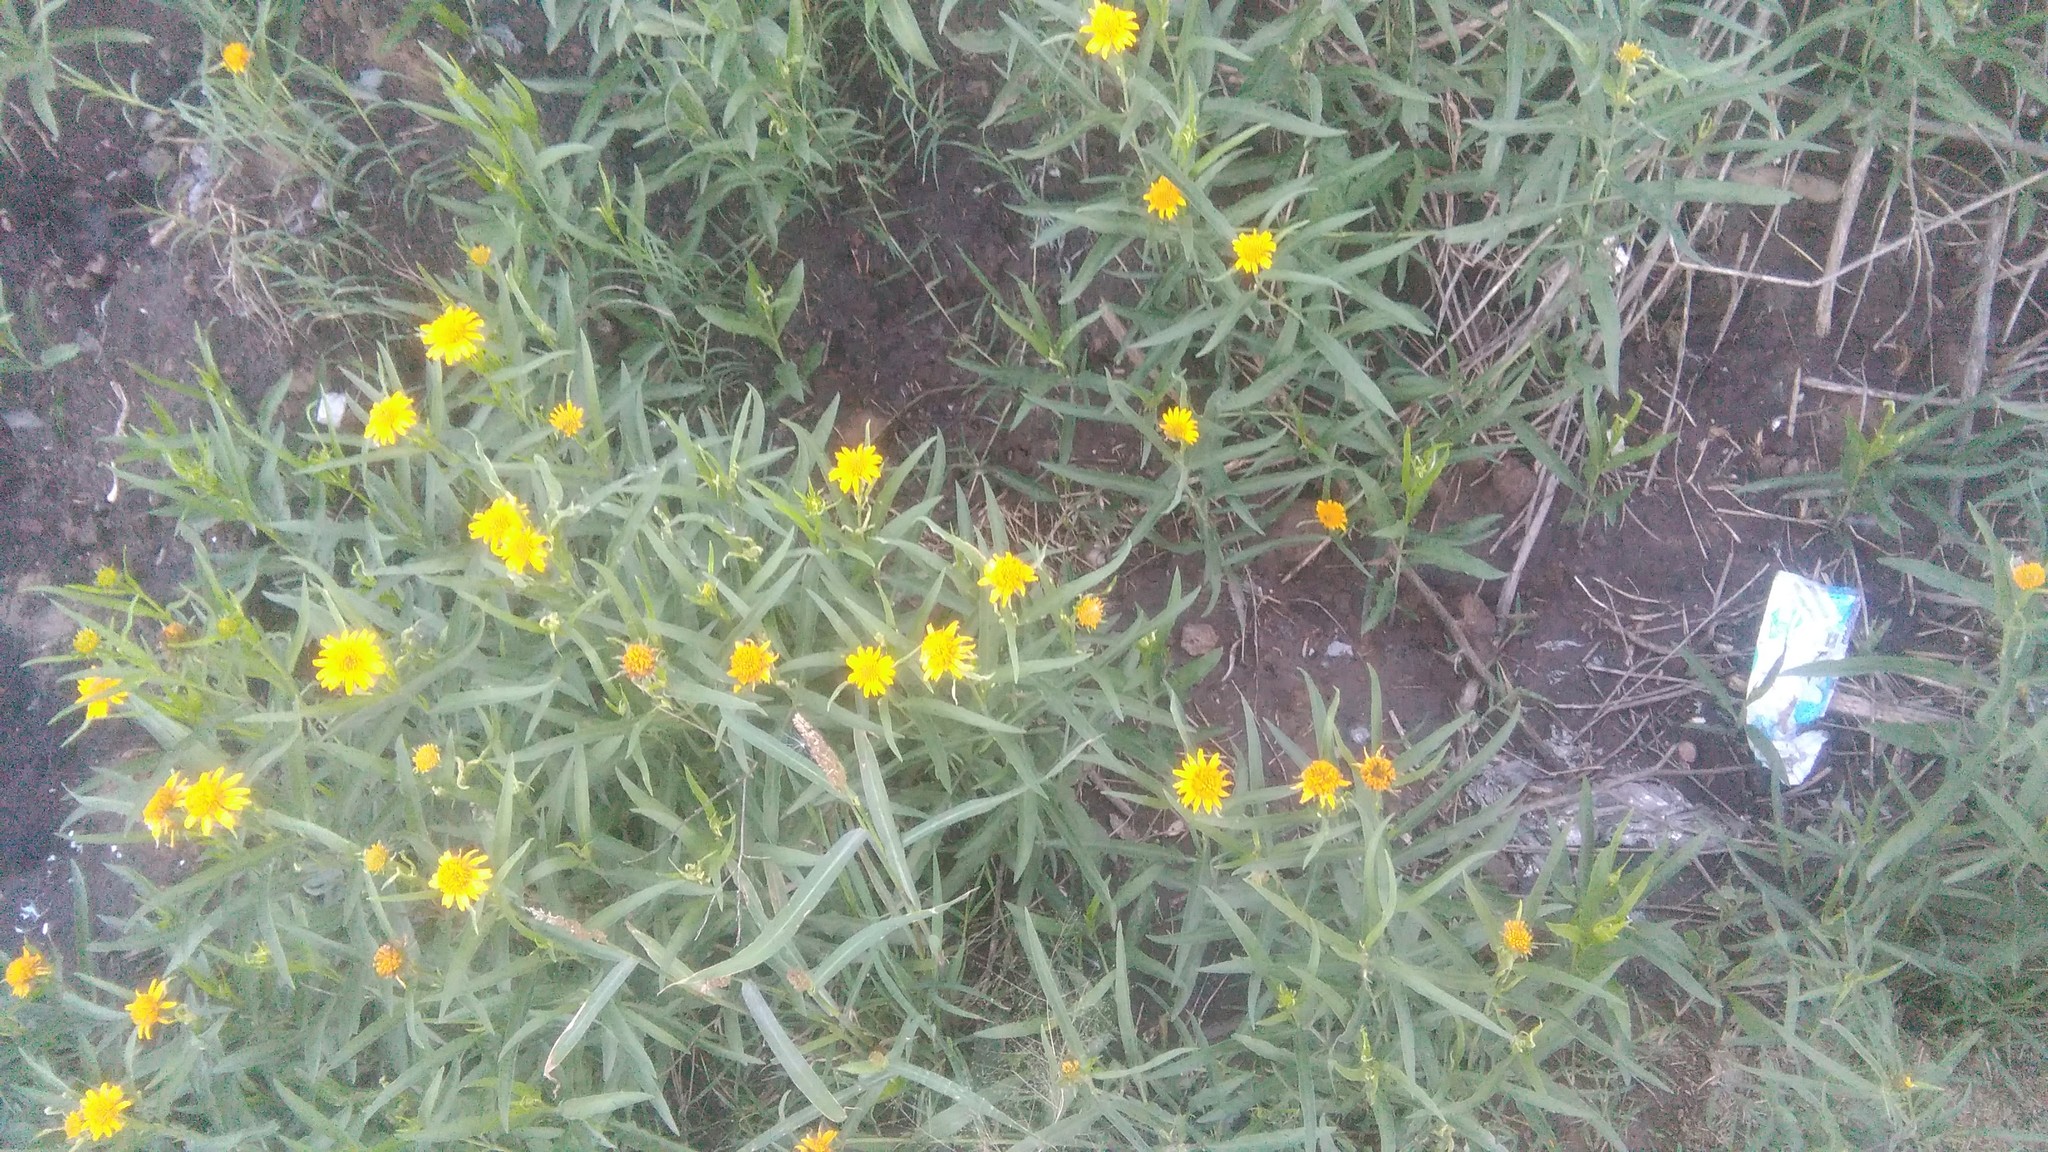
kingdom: Plantae
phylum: Tracheophyta
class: Magnoliopsida
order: Asterales
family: Asteraceae
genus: Pascalia
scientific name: Pascalia glauca
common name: Beach creeping oxeye
